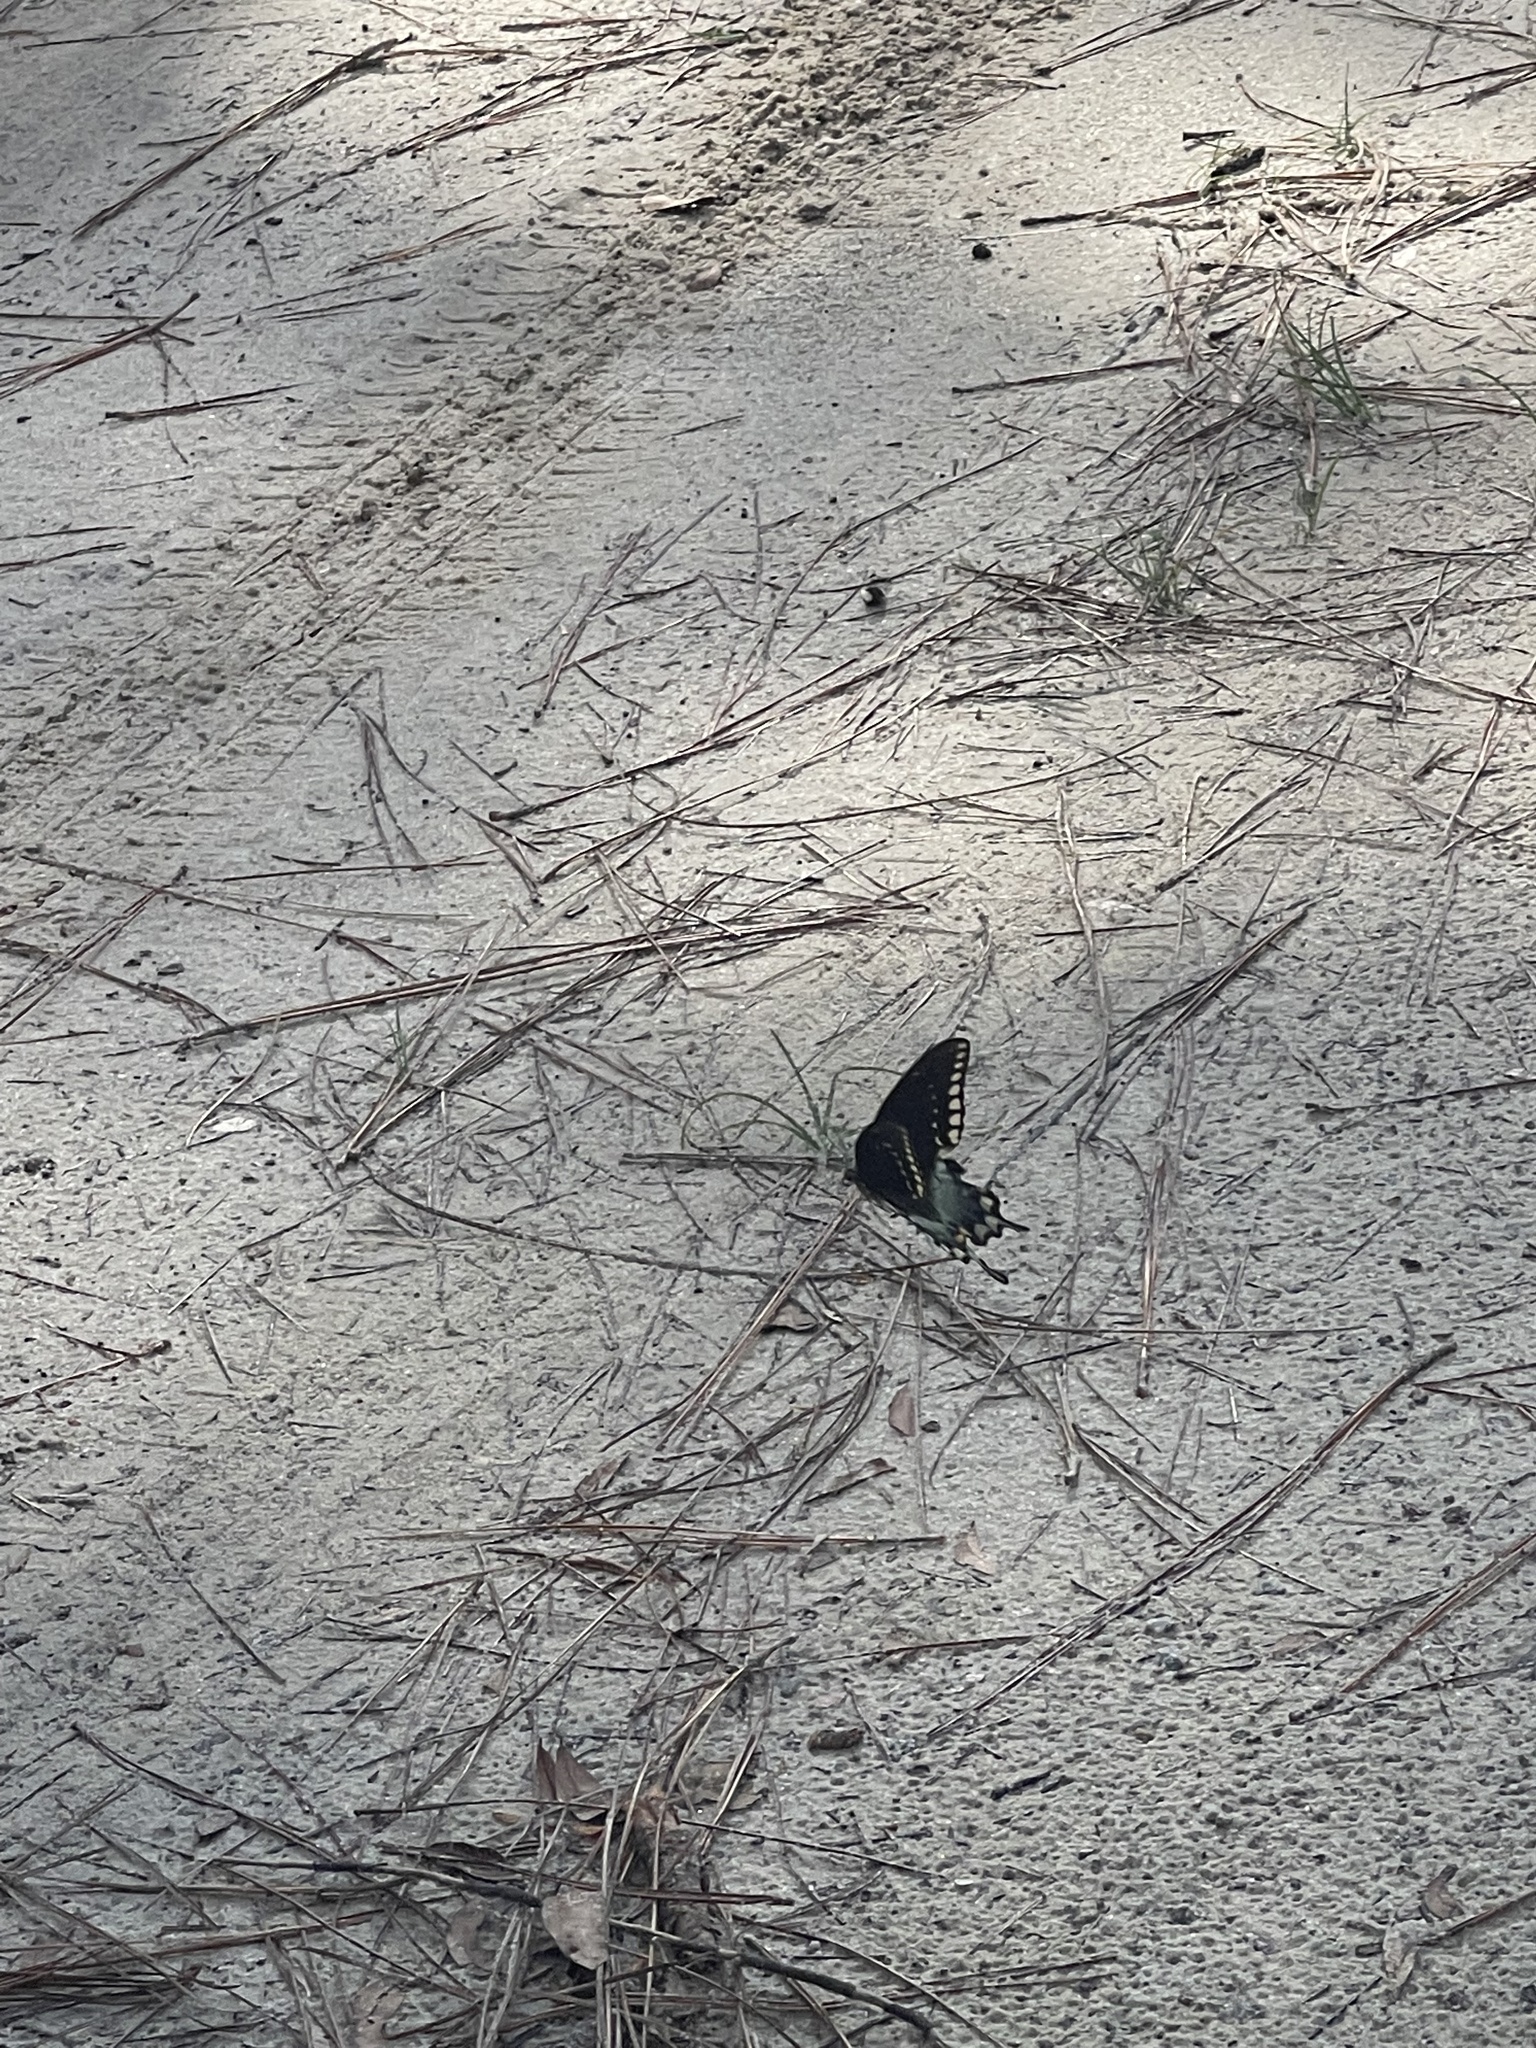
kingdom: Animalia
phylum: Arthropoda
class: Insecta
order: Lepidoptera
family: Papilionidae
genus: Papilio
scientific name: Papilio troilus
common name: Spicebush swallowtail
